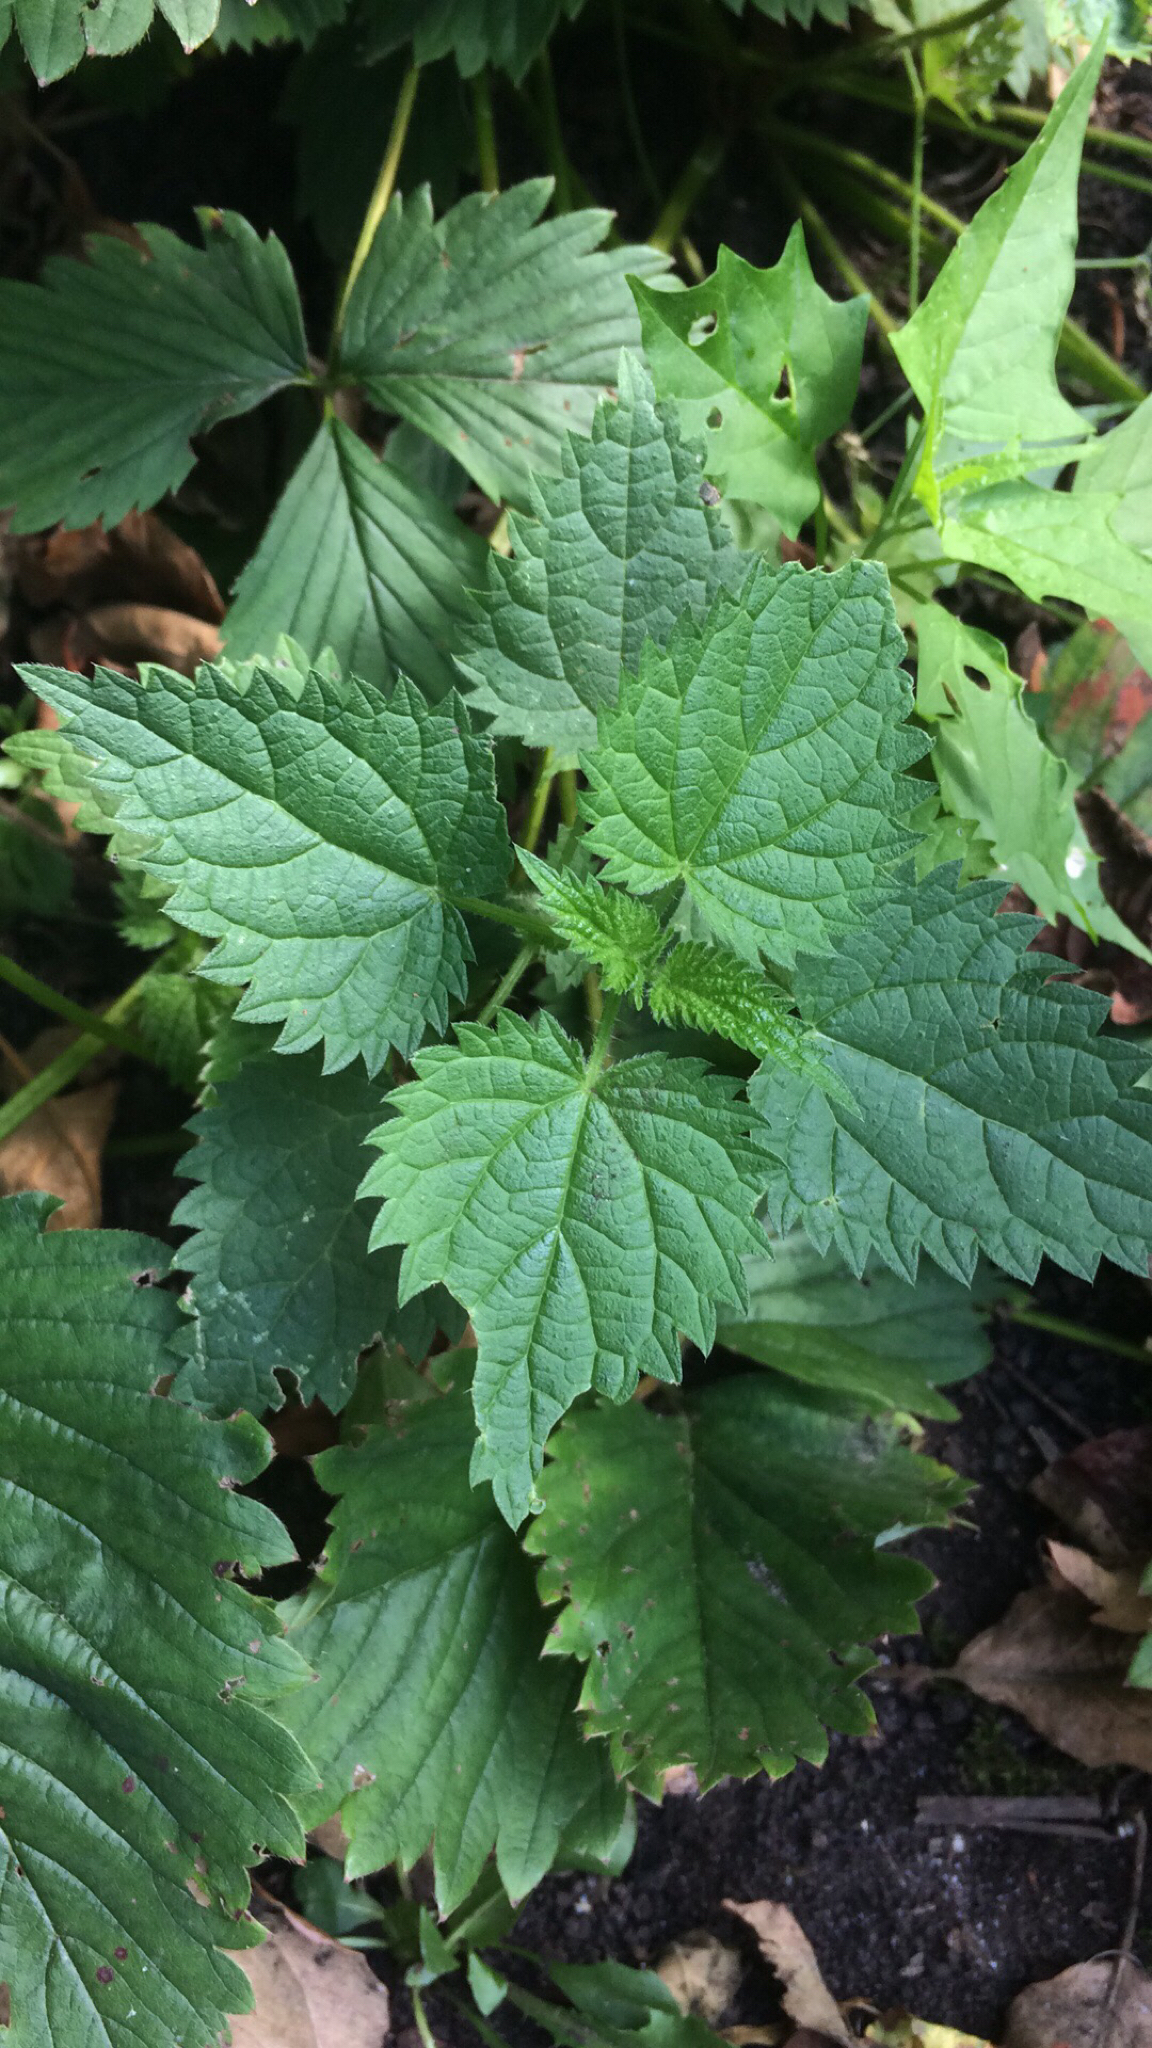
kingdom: Plantae
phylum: Tracheophyta
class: Magnoliopsida
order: Rosales
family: Urticaceae
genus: Urtica
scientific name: Urtica dioica
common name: Common nettle
